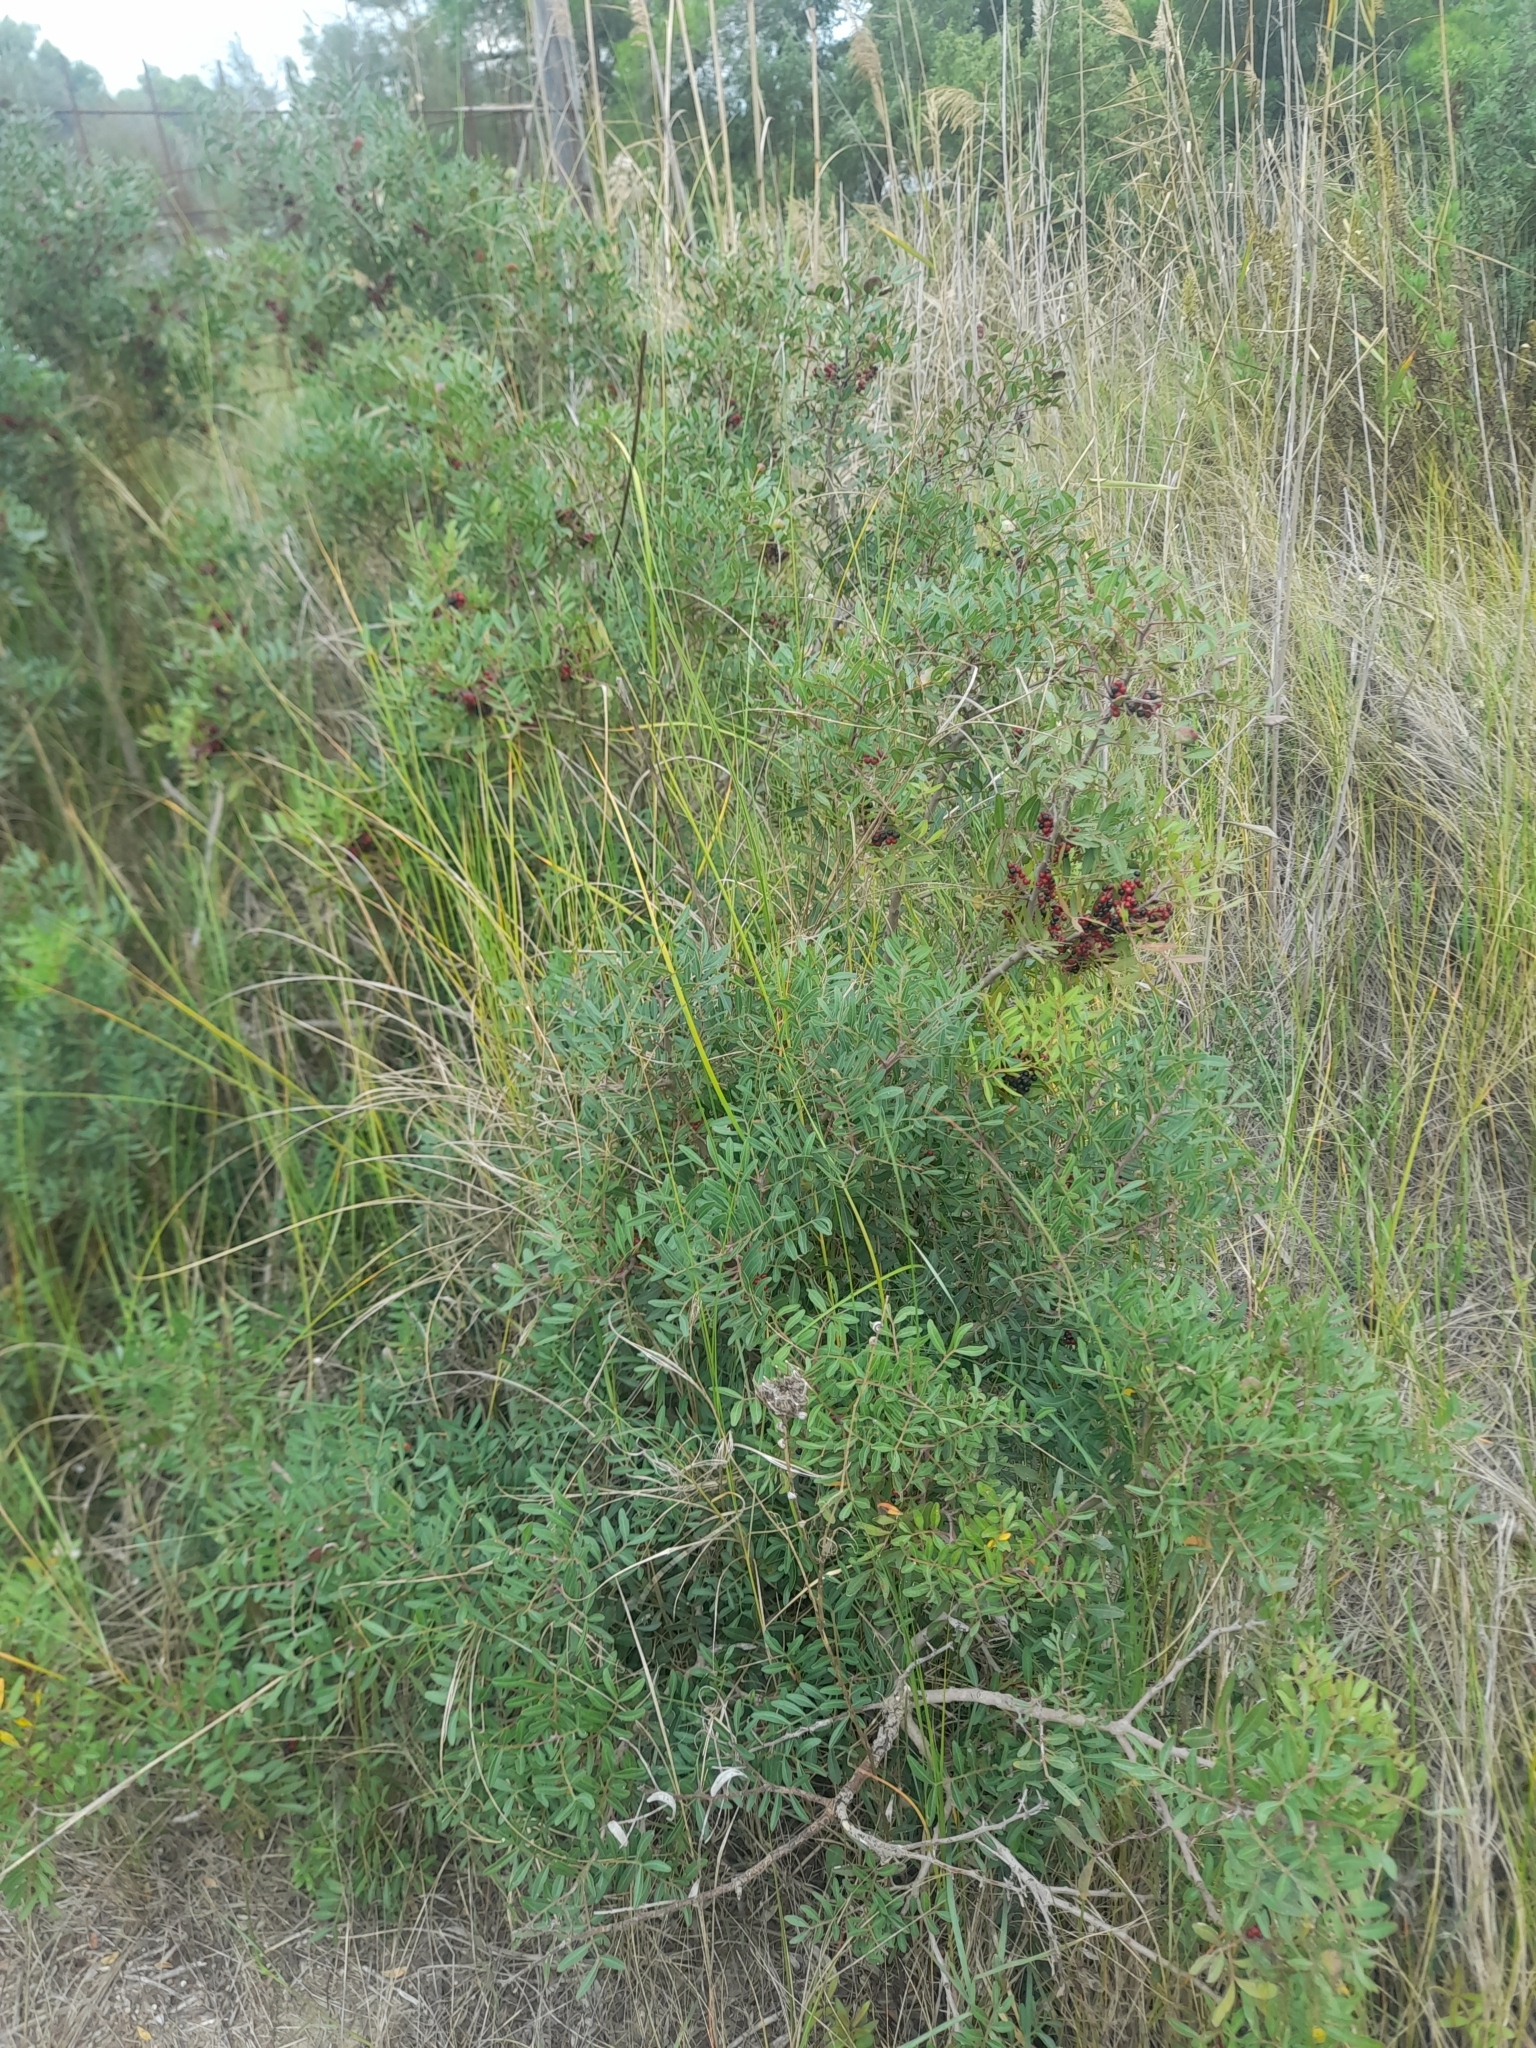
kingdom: Plantae
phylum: Tracheophyta
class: Magnoliopsida
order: Sapindales
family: Anacardiaceae
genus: Pistacia
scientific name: Pistacia lentiscus
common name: Lentisk
